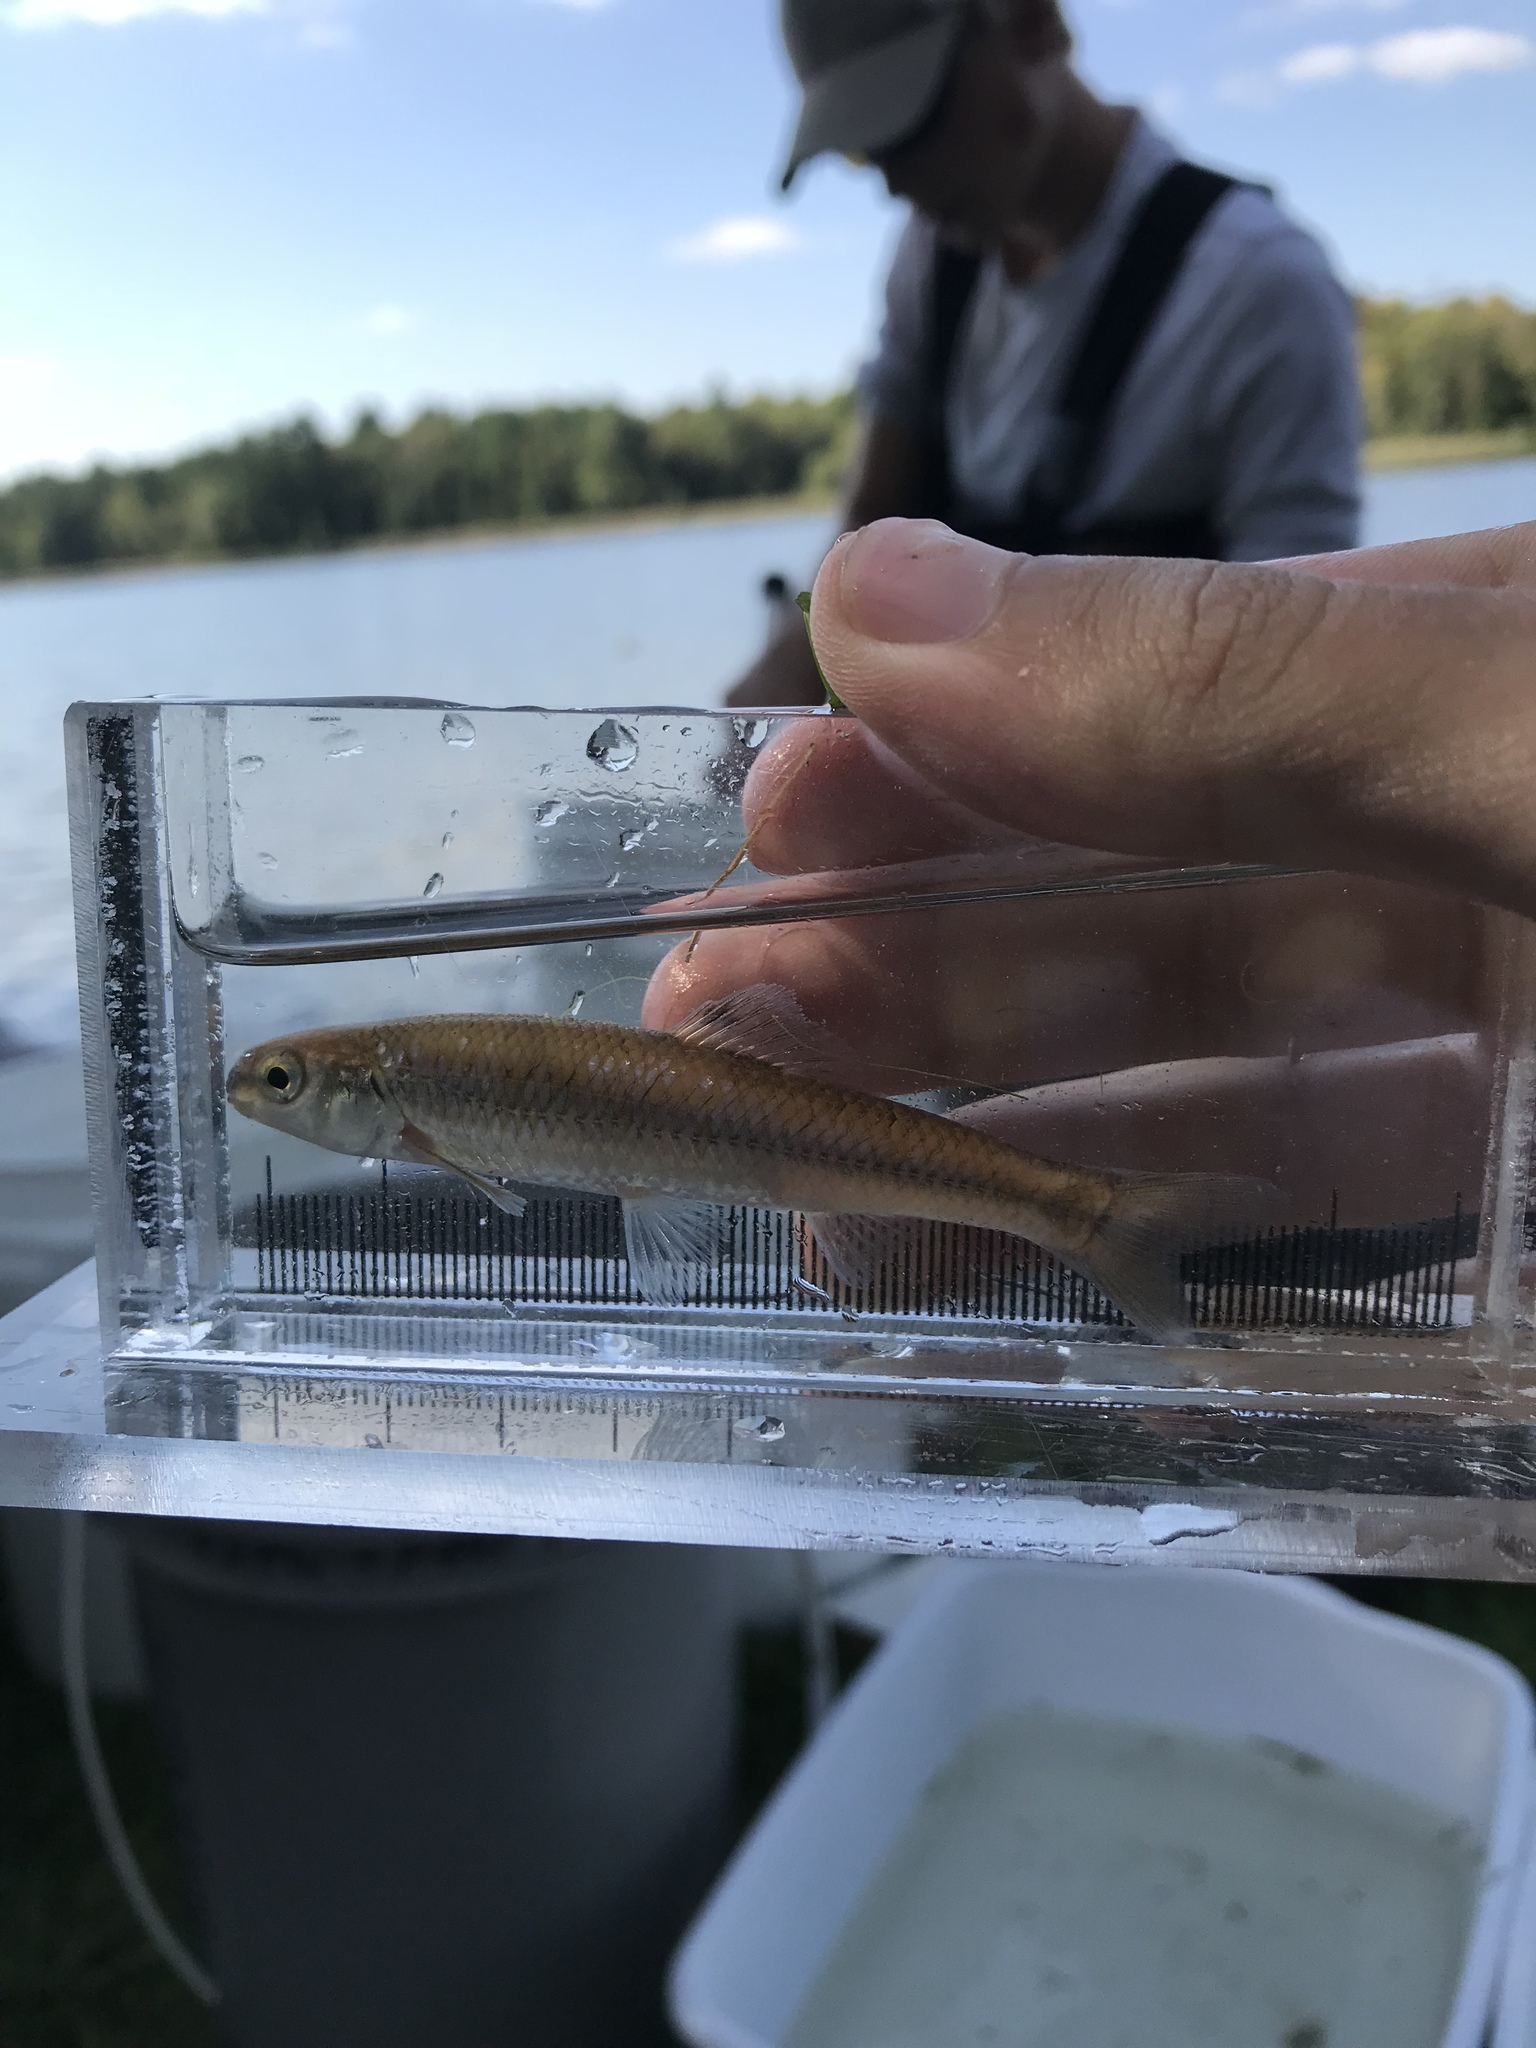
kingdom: Animalia
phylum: Chordata
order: Cypriniformes
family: Cyprinidae
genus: Pimephales
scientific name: Pimephales notatus
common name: Bluntnose minnow
